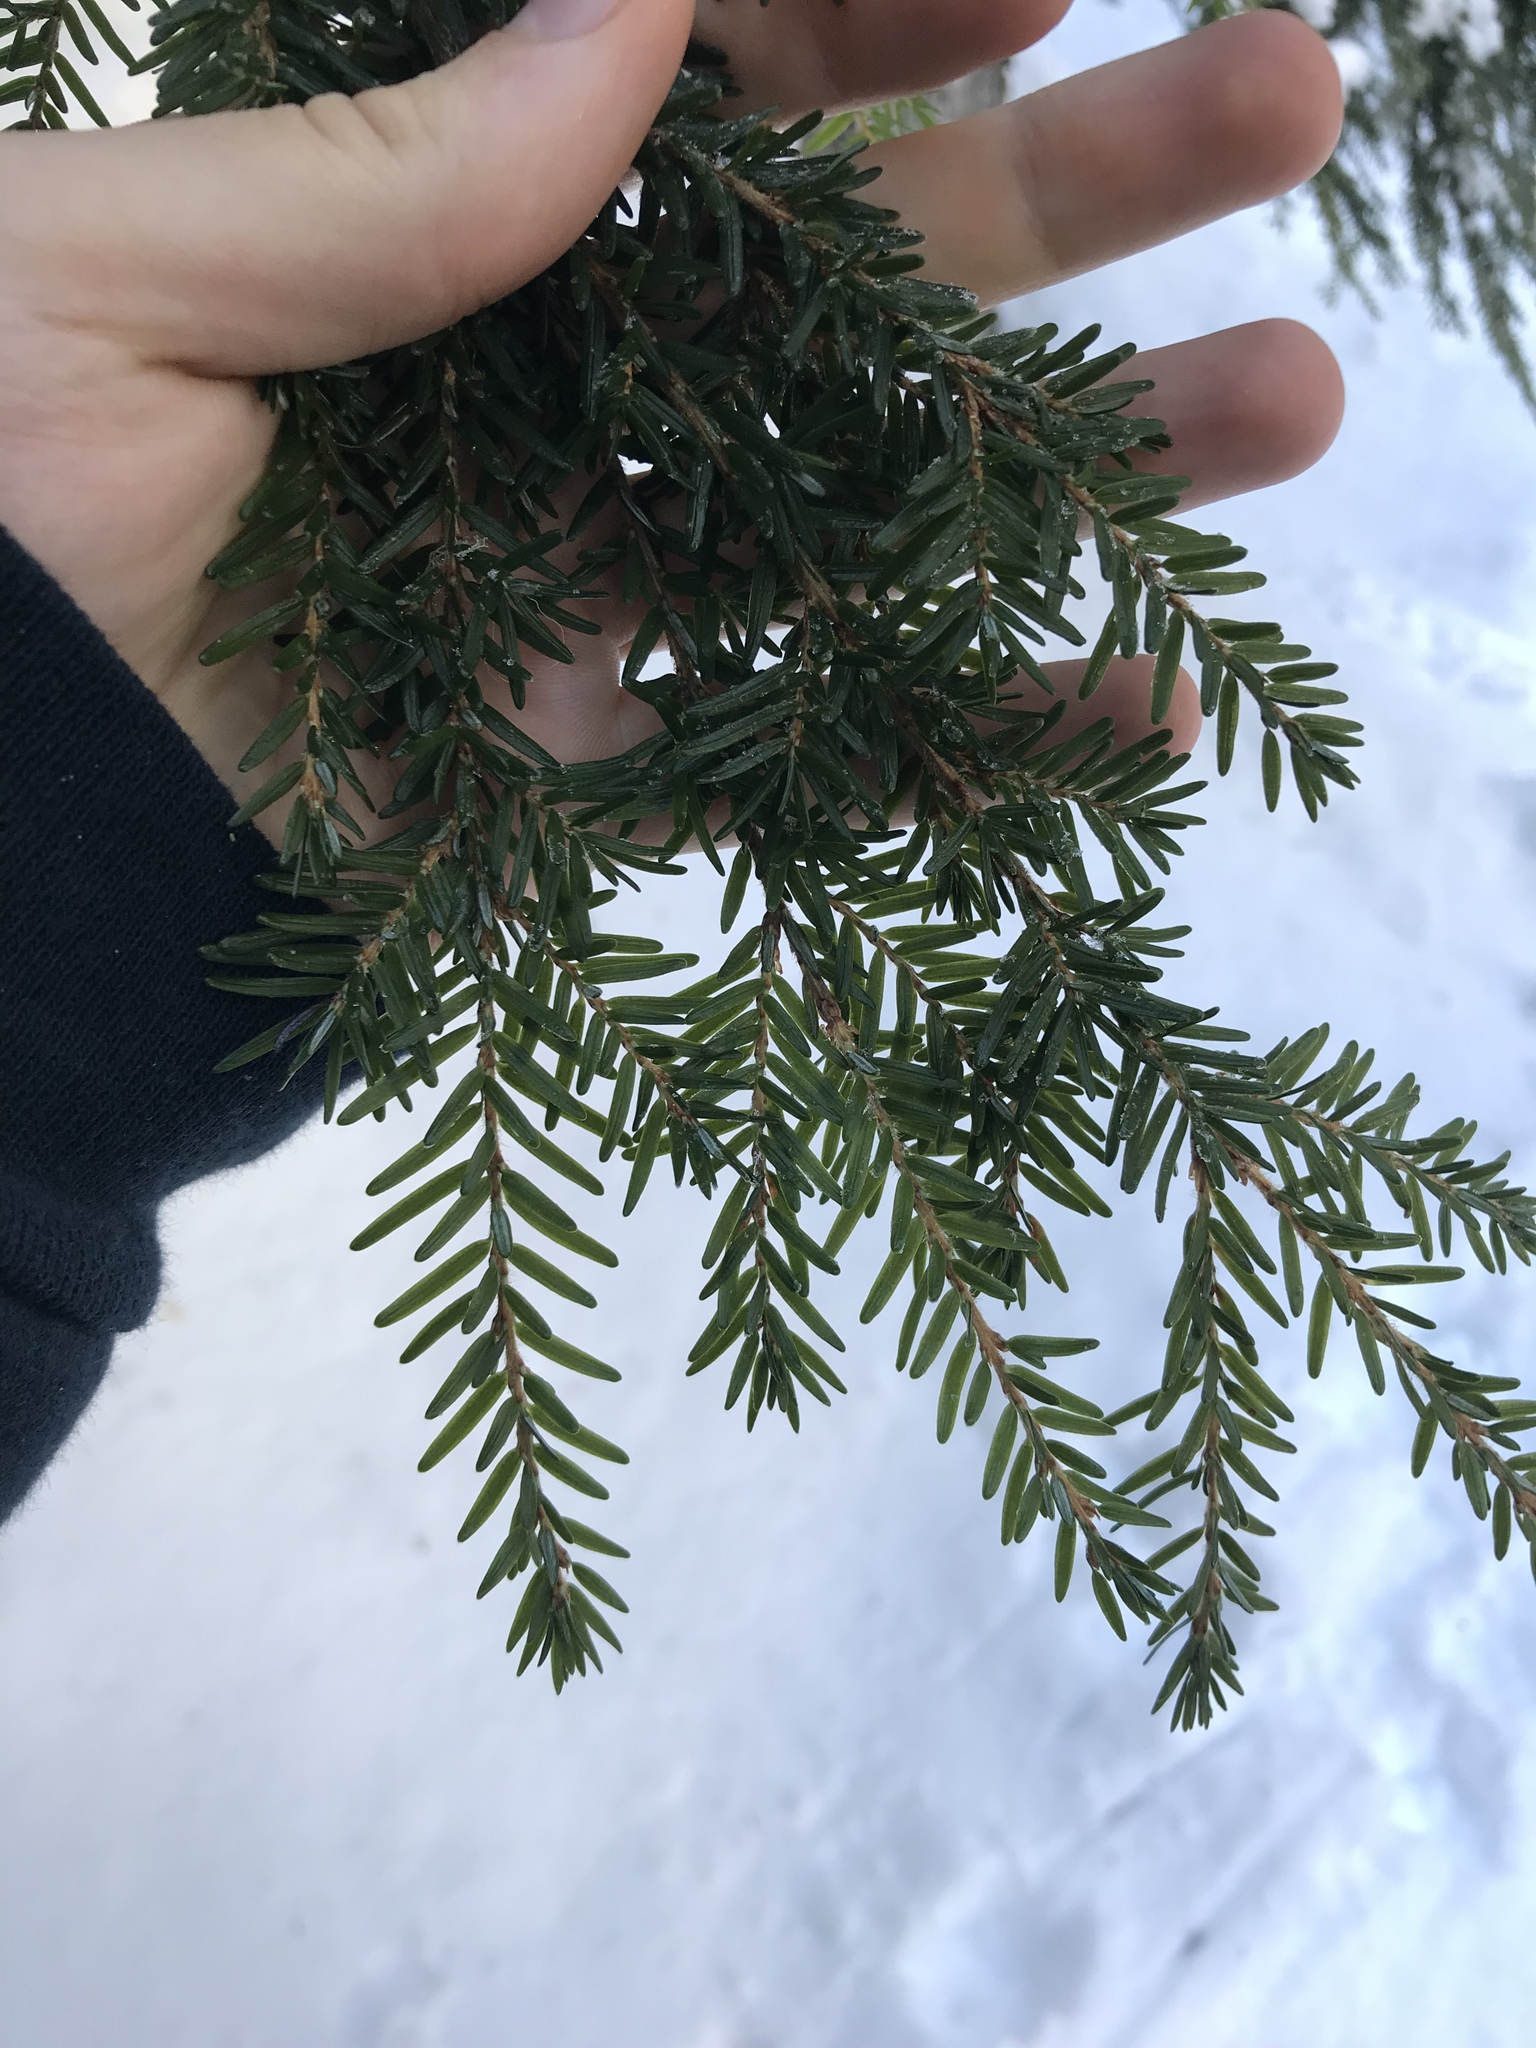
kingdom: Plantae
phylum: Tracheophyta
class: Pinopsida
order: Pinales
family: Pinaceae
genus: Tsuga
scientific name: Tsuga heterophylla
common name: Western hemlock
